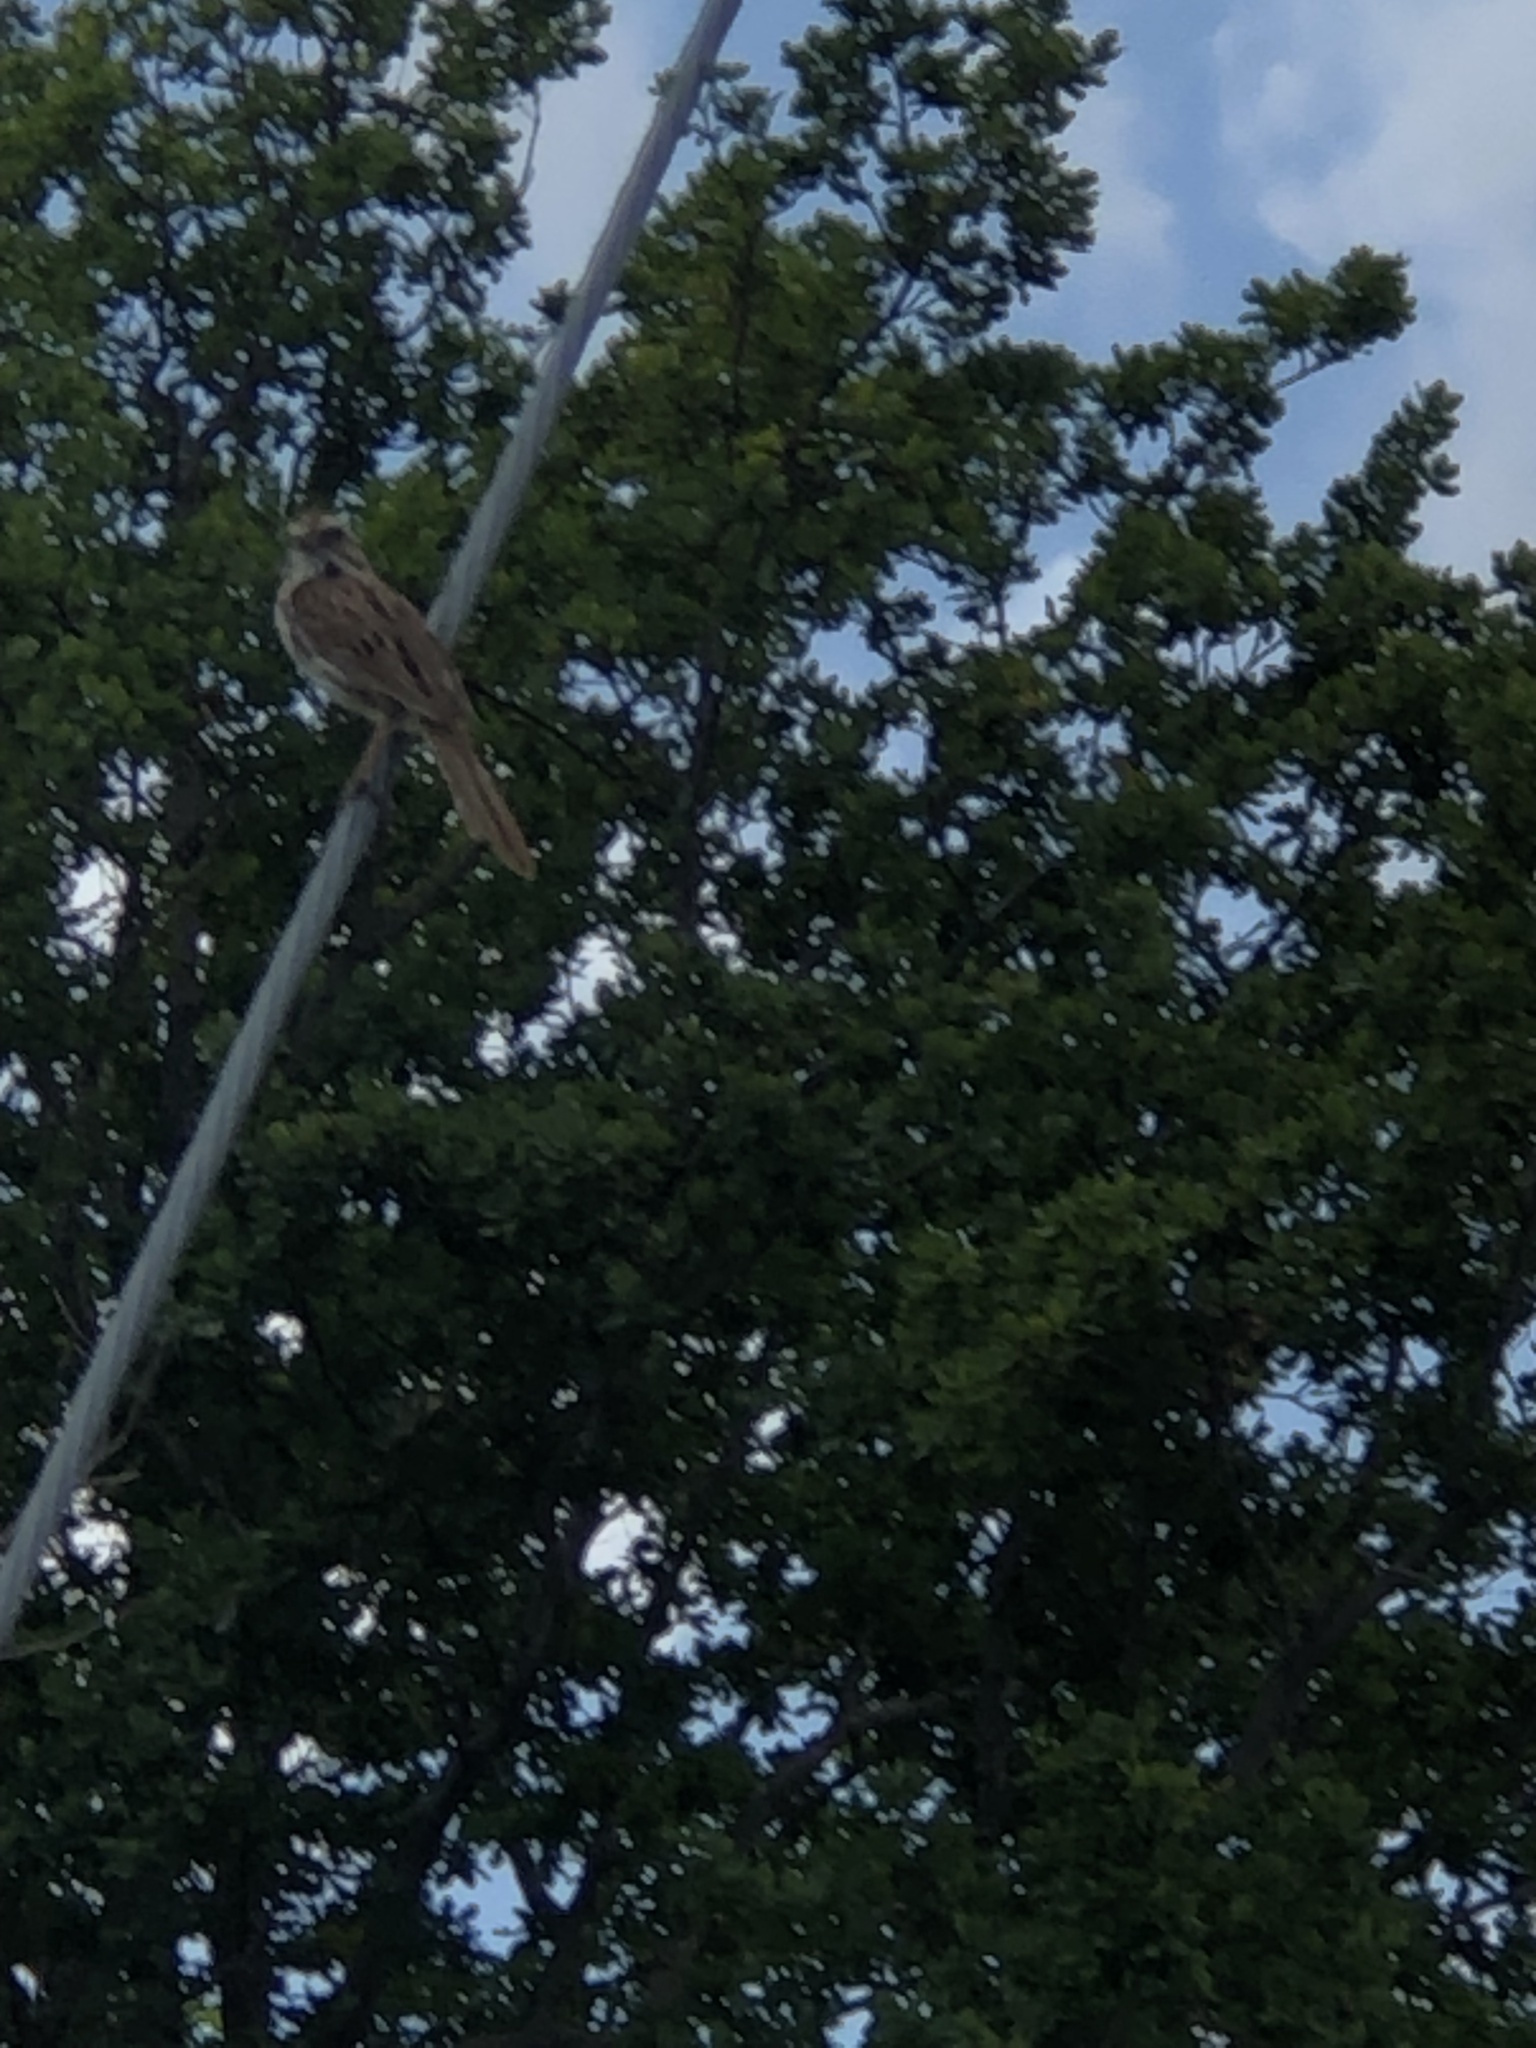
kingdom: Animalia
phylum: Chordata
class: Aves
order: Passeriformes
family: Passerellidae
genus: Melospiza
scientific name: Melospiza melodia
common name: Song sparrow
